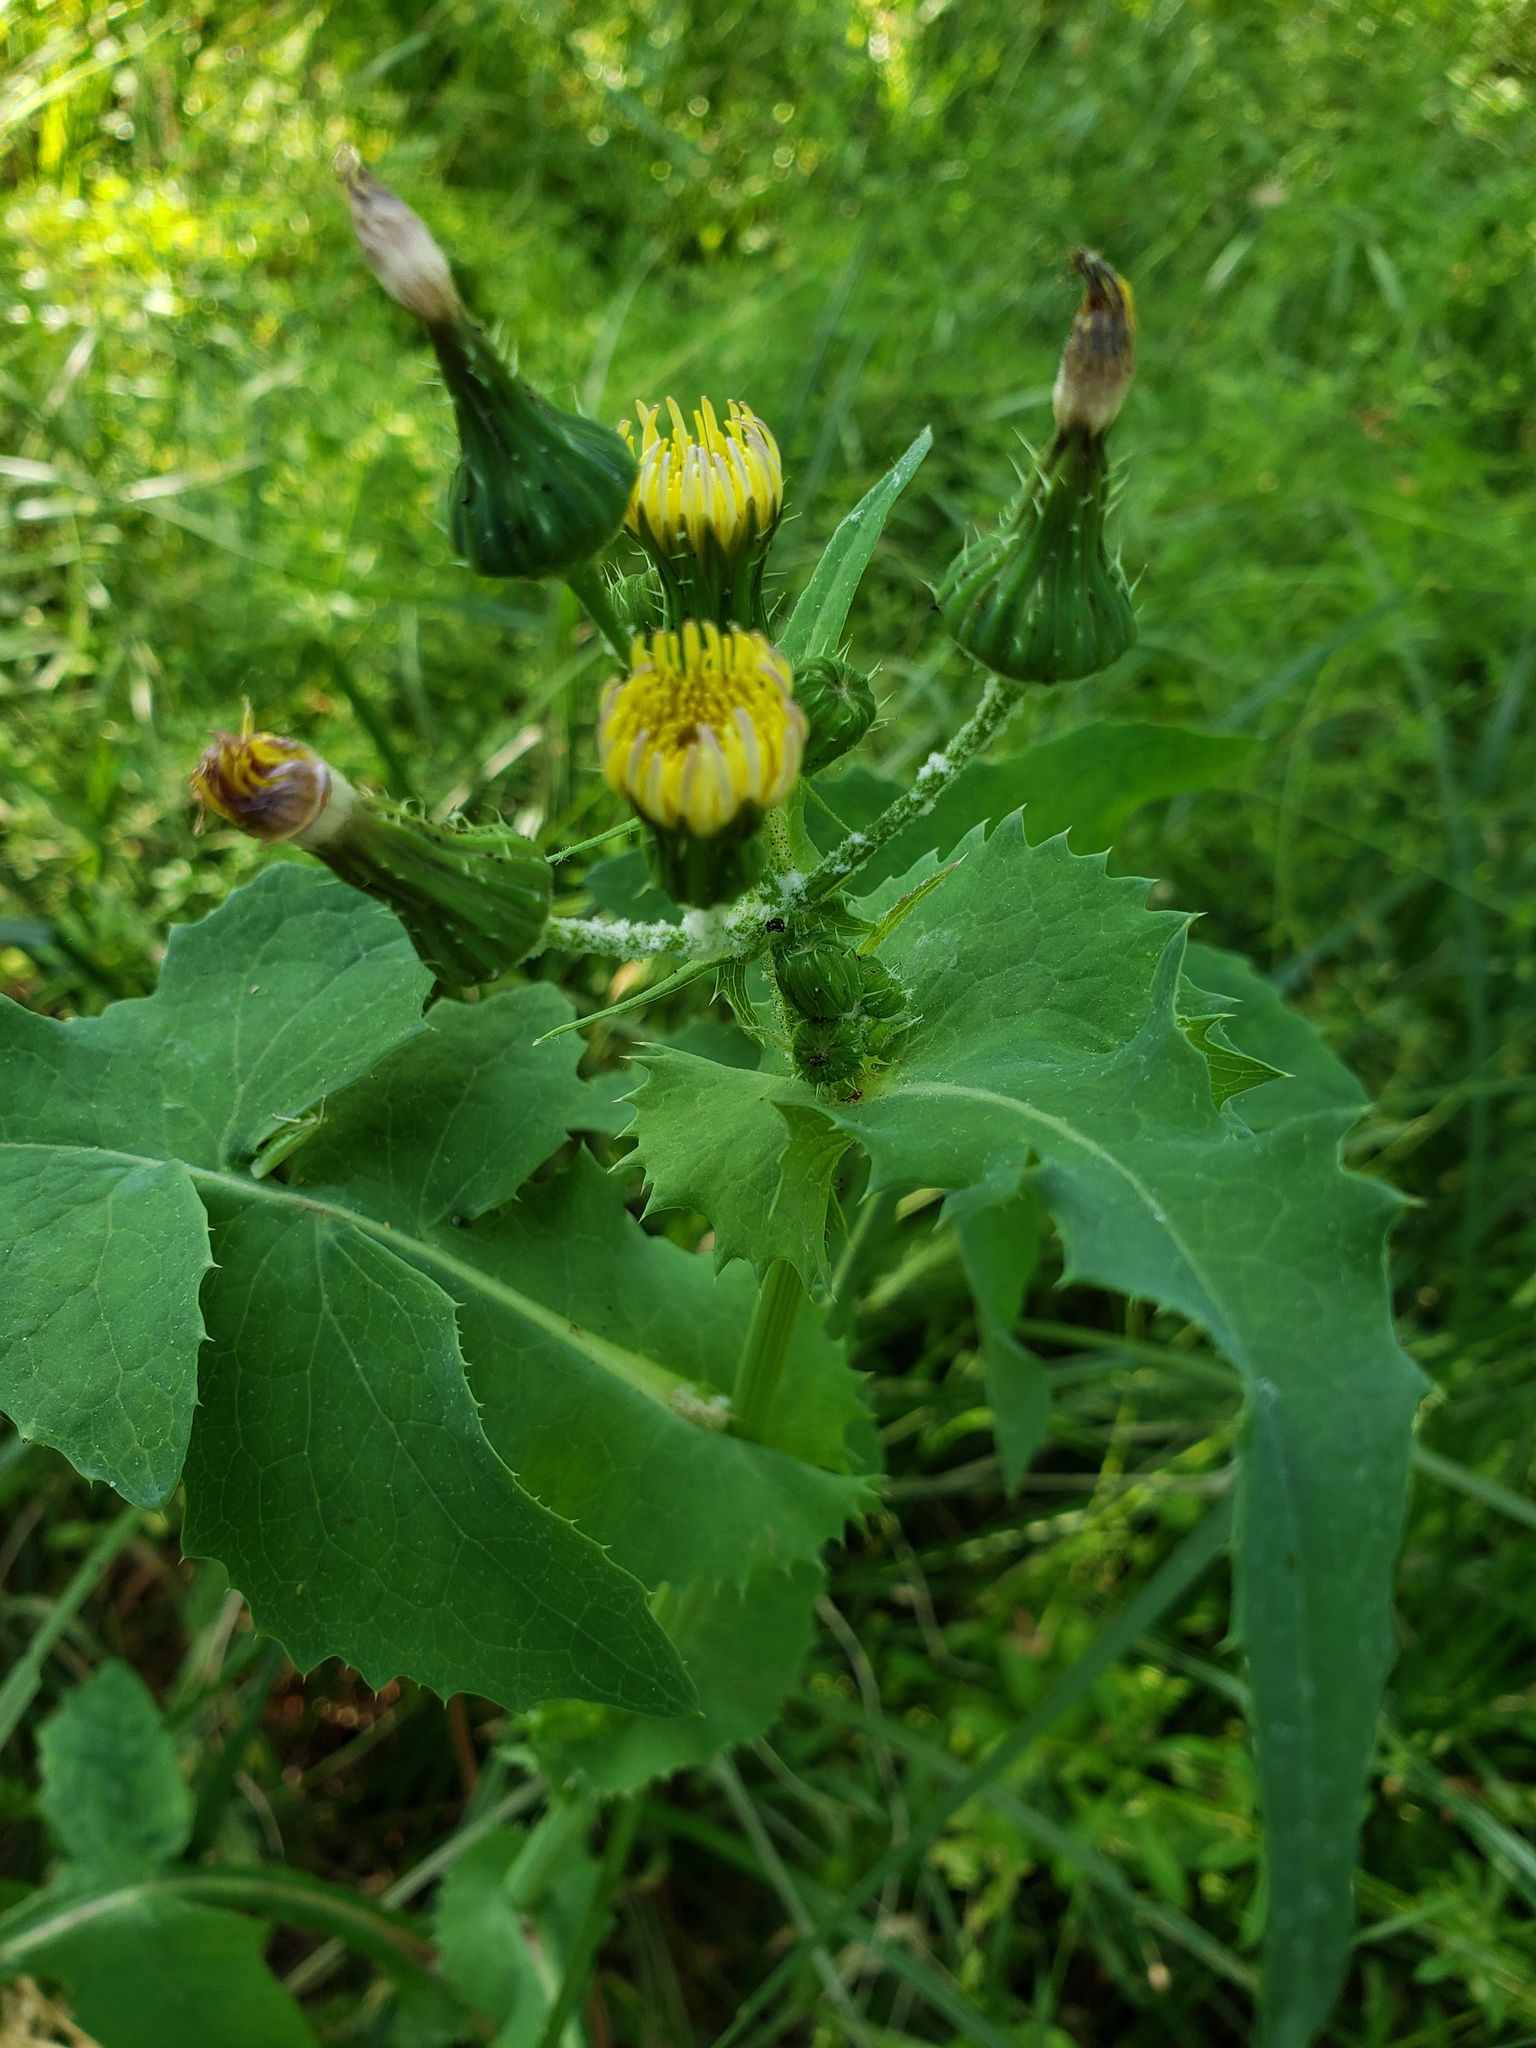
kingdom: Plantae
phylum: Tracheophyta
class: Magnoliopsida
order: Asterales
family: Asteraceae
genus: Sonchus
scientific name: Sonchus oleraceus
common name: Common sowthistle
